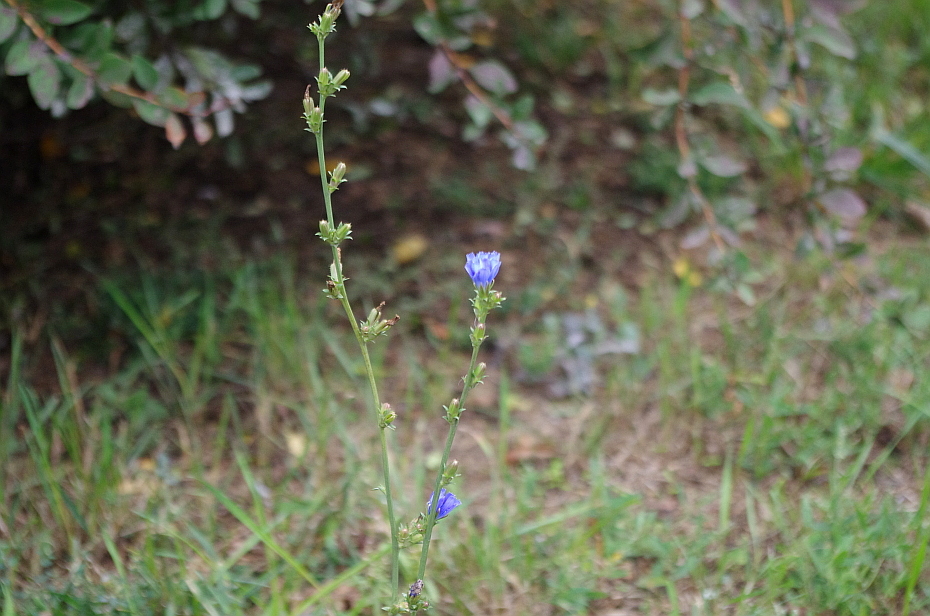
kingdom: Plantae
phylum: Tracheophyta
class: Magnoliopsida
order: Asterales
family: Asteraceae
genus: Cichorium
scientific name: Cichorium intybus
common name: Chicory
